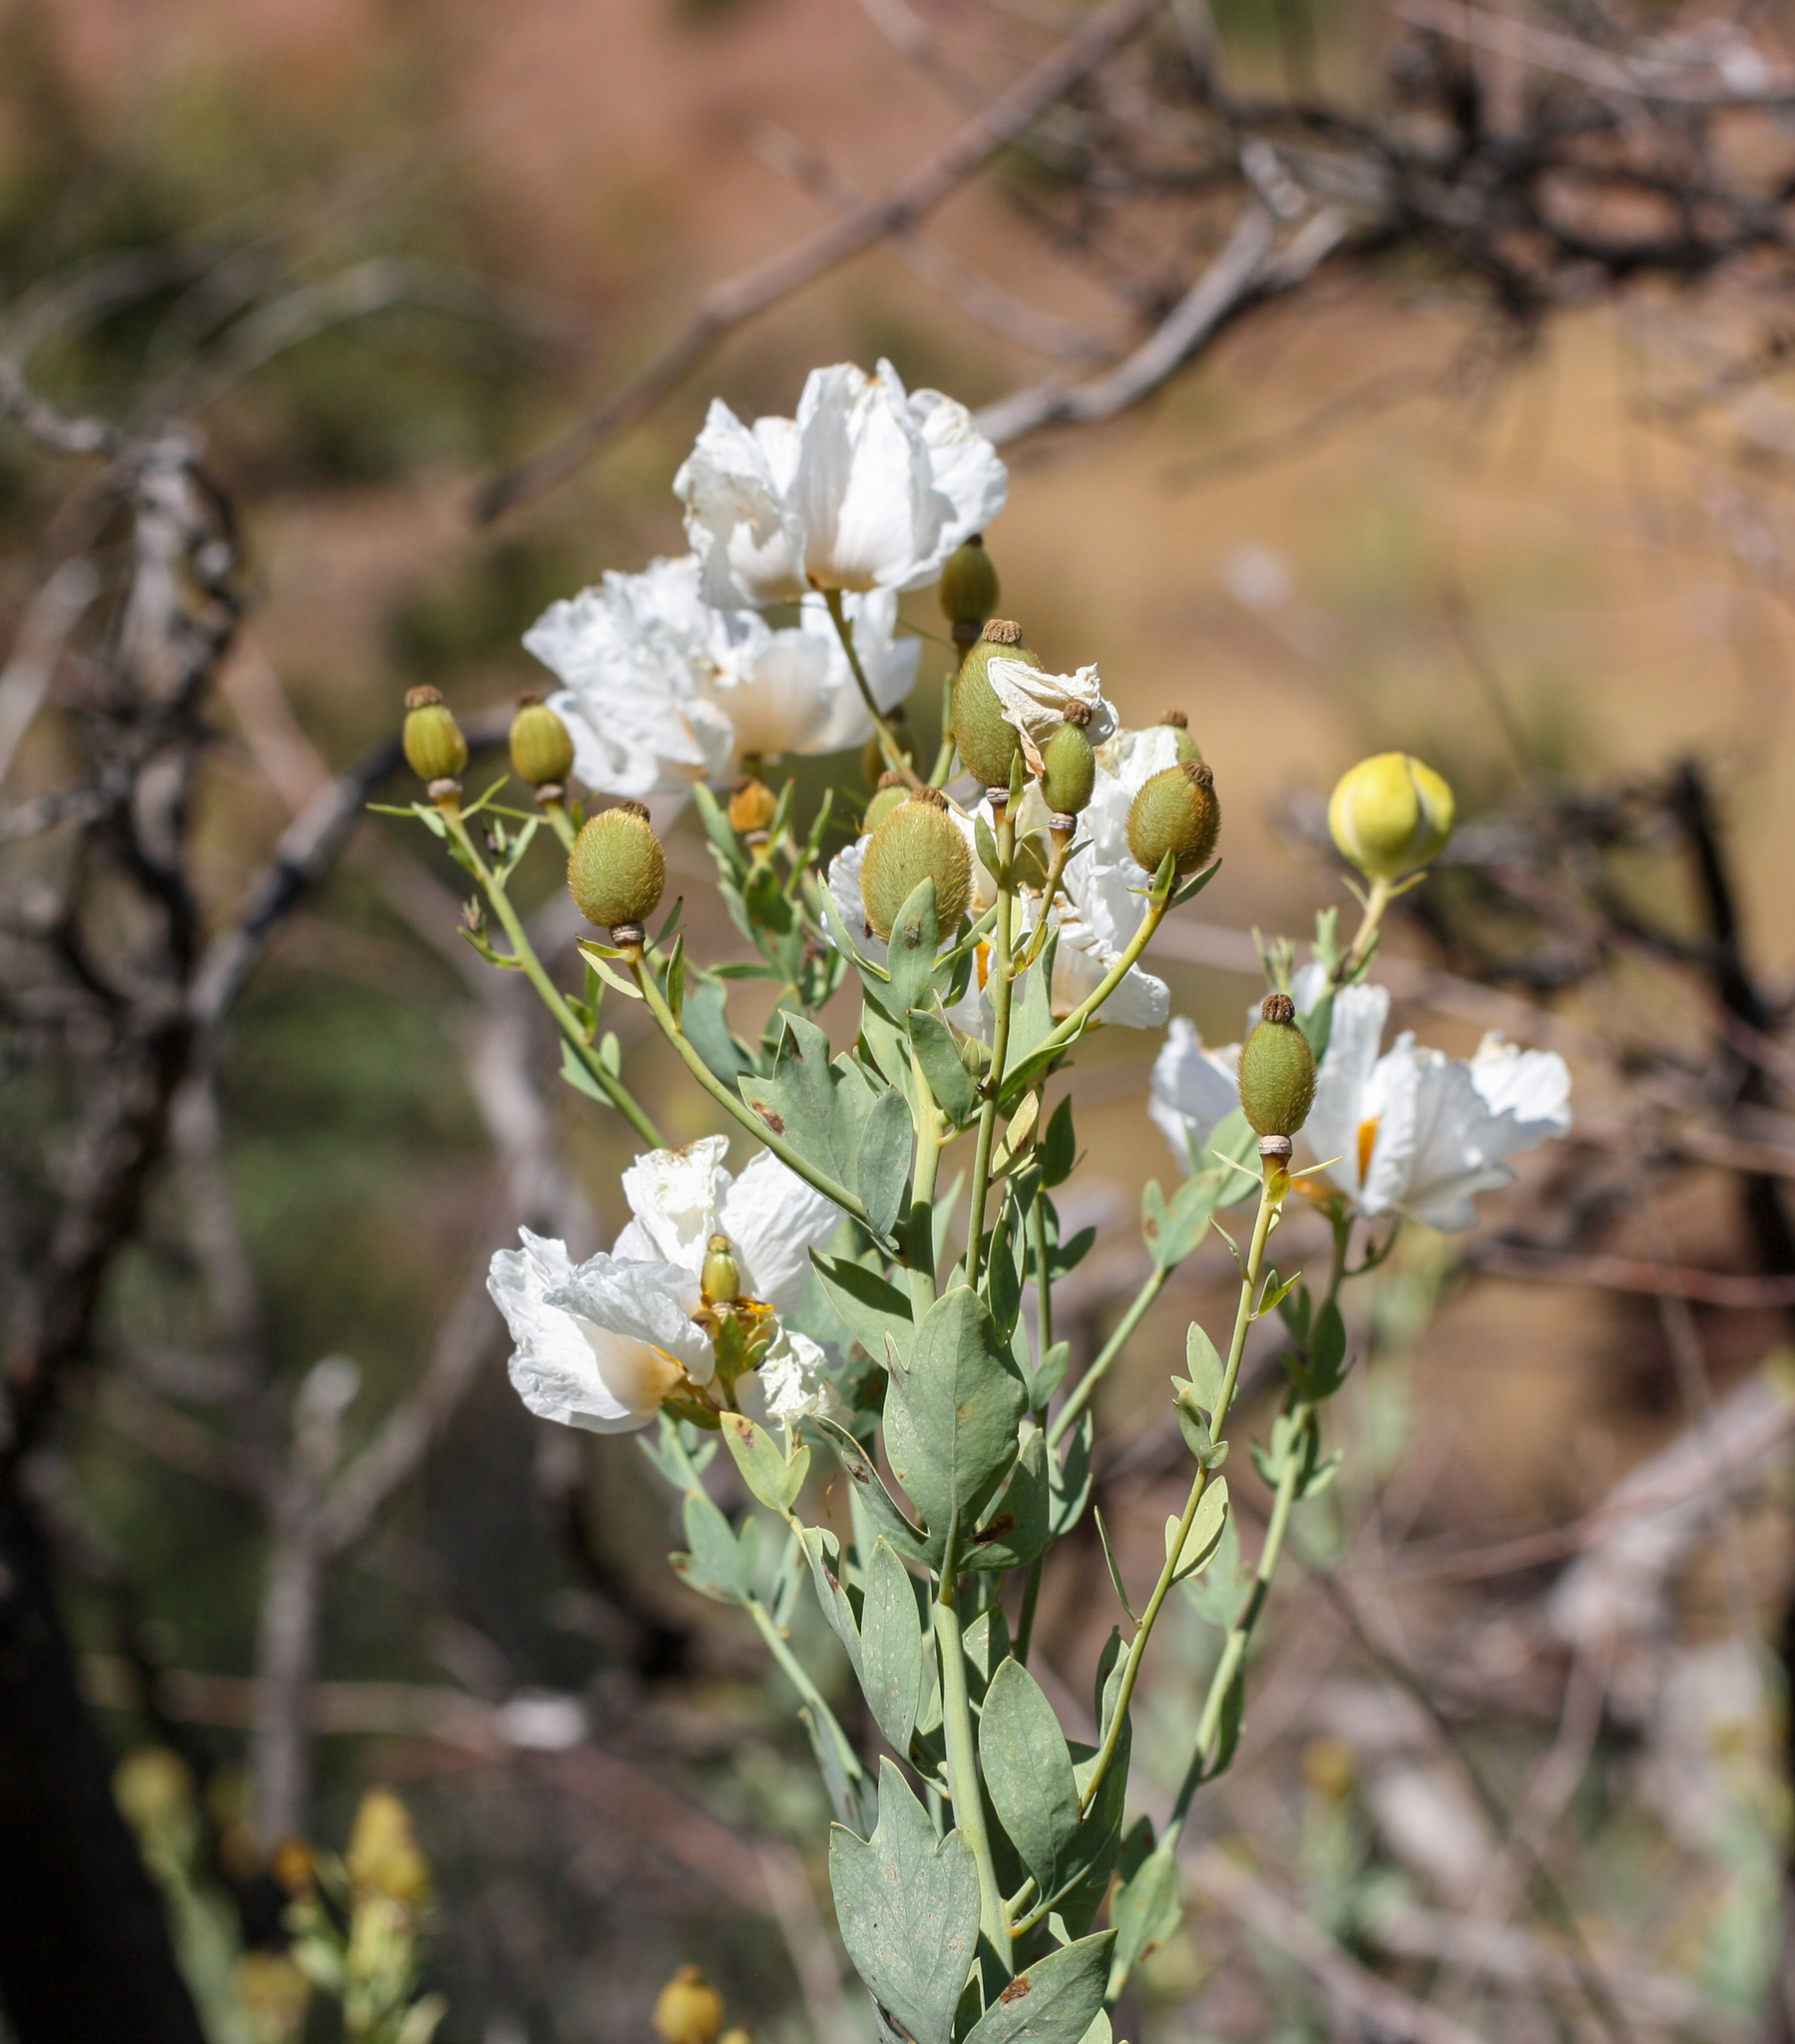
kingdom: Plantae
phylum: Tracheophyta
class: Magnoliopsida
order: Ranunculales
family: Papaveraceae
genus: Romneya
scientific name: Romneya coulteri
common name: California tree-poppy
